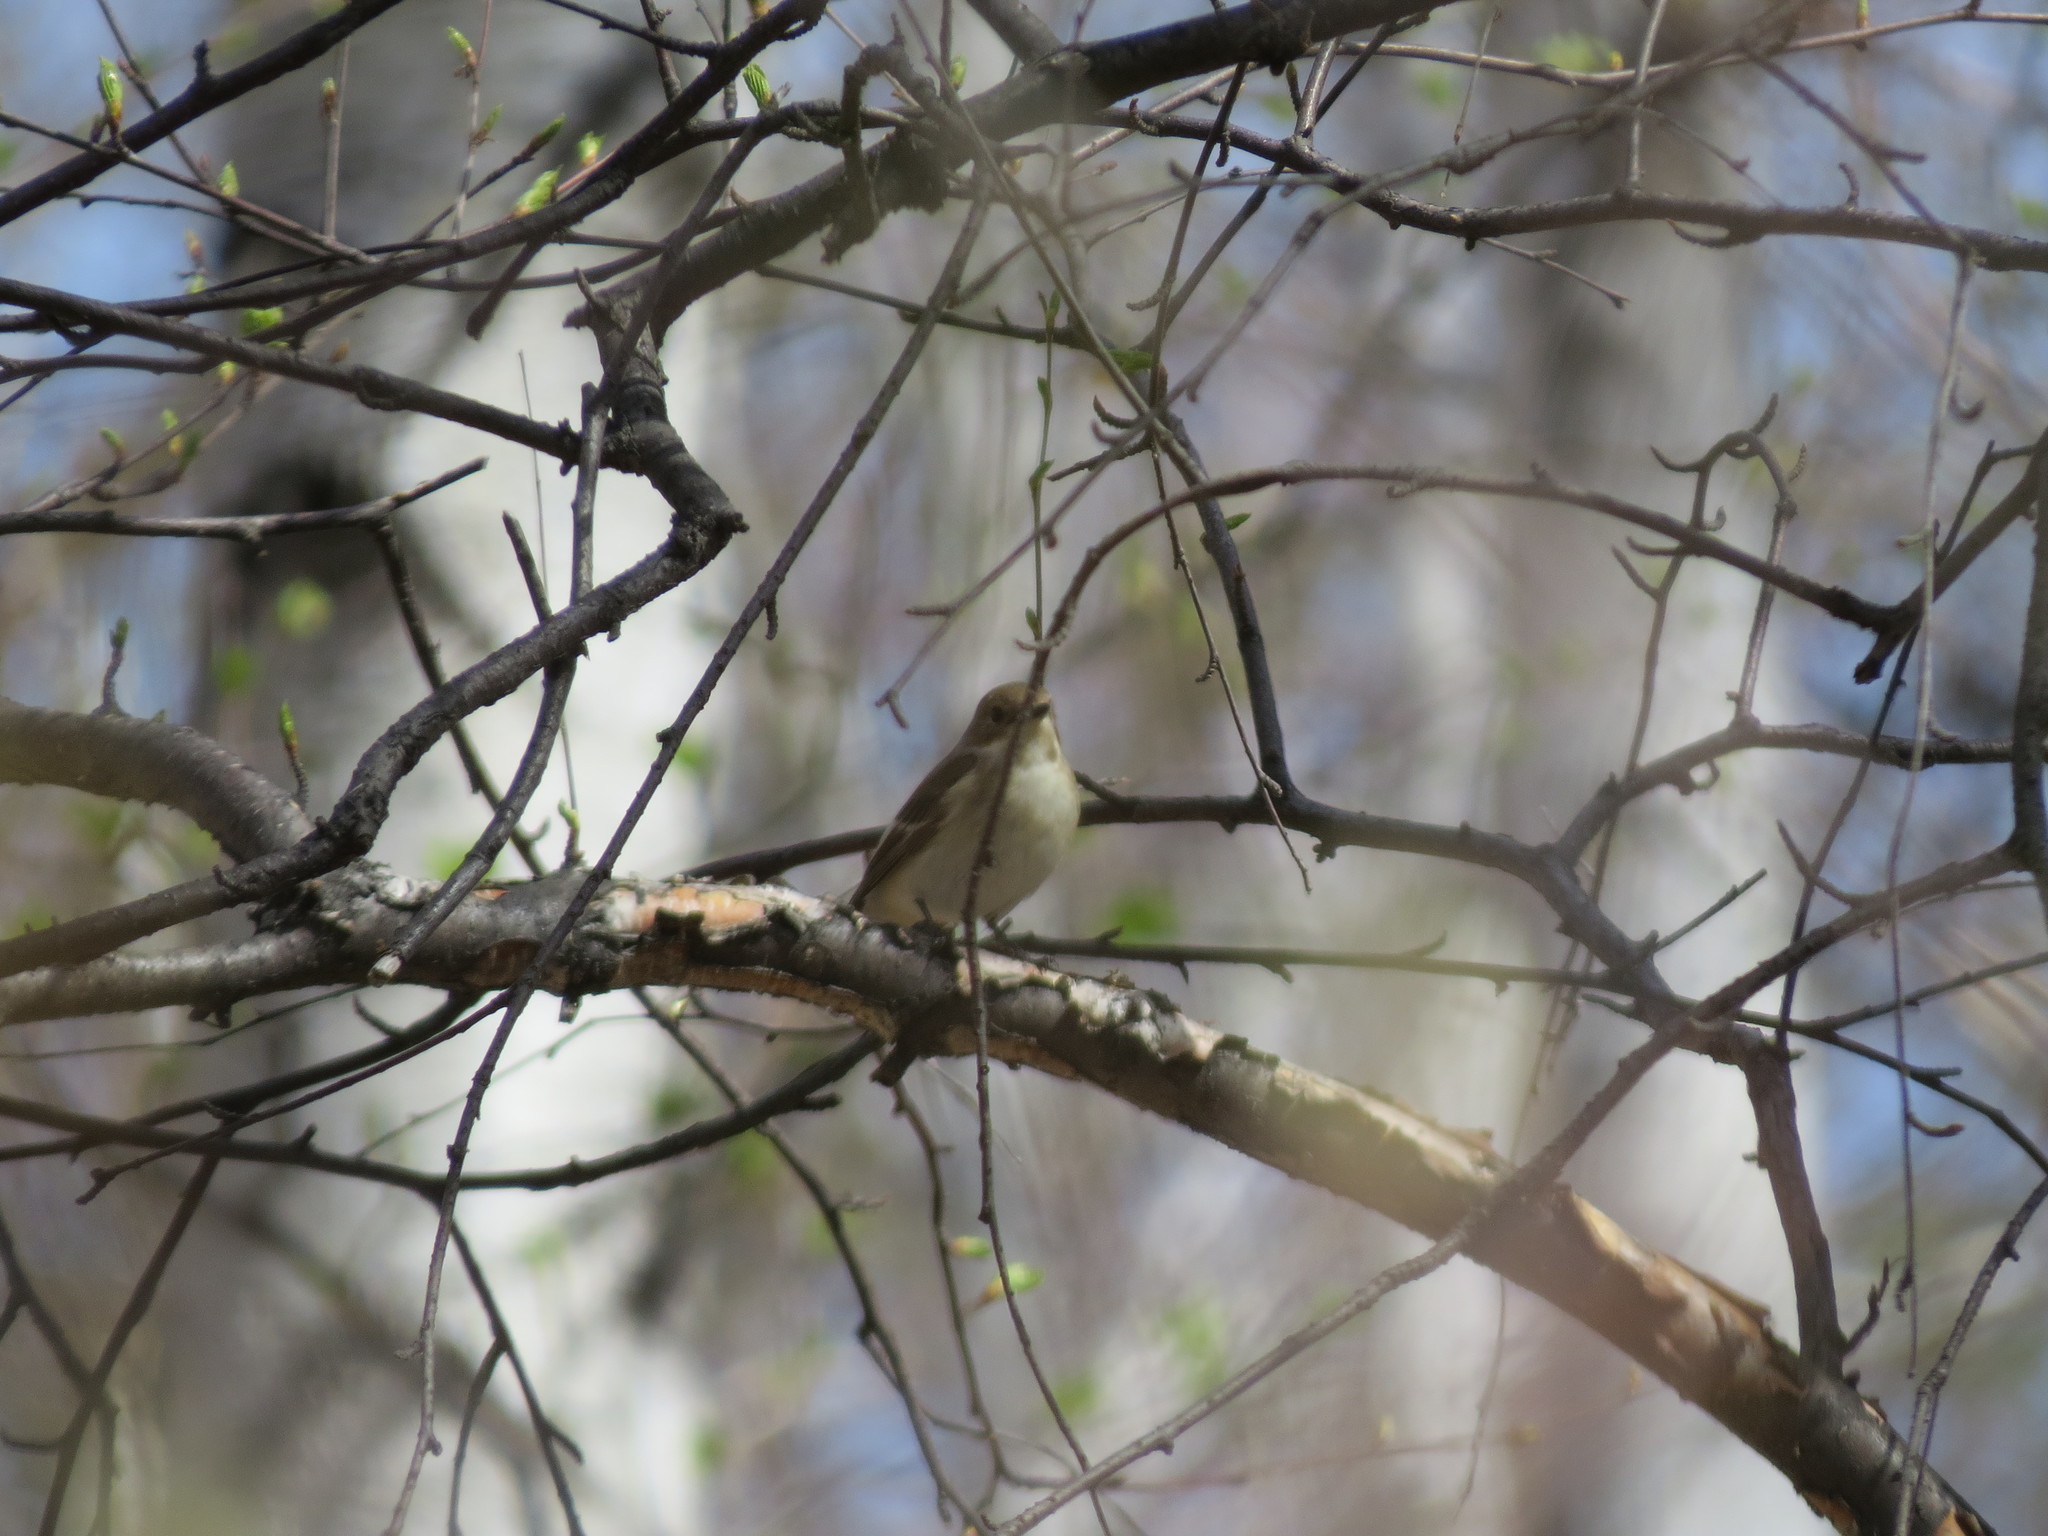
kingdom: Animalia
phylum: Chordata
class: Aves
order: Passeriformes
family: Muscicapidae
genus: Ficedula
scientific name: Ficedula hypoleuca
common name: European pied flycatcher
